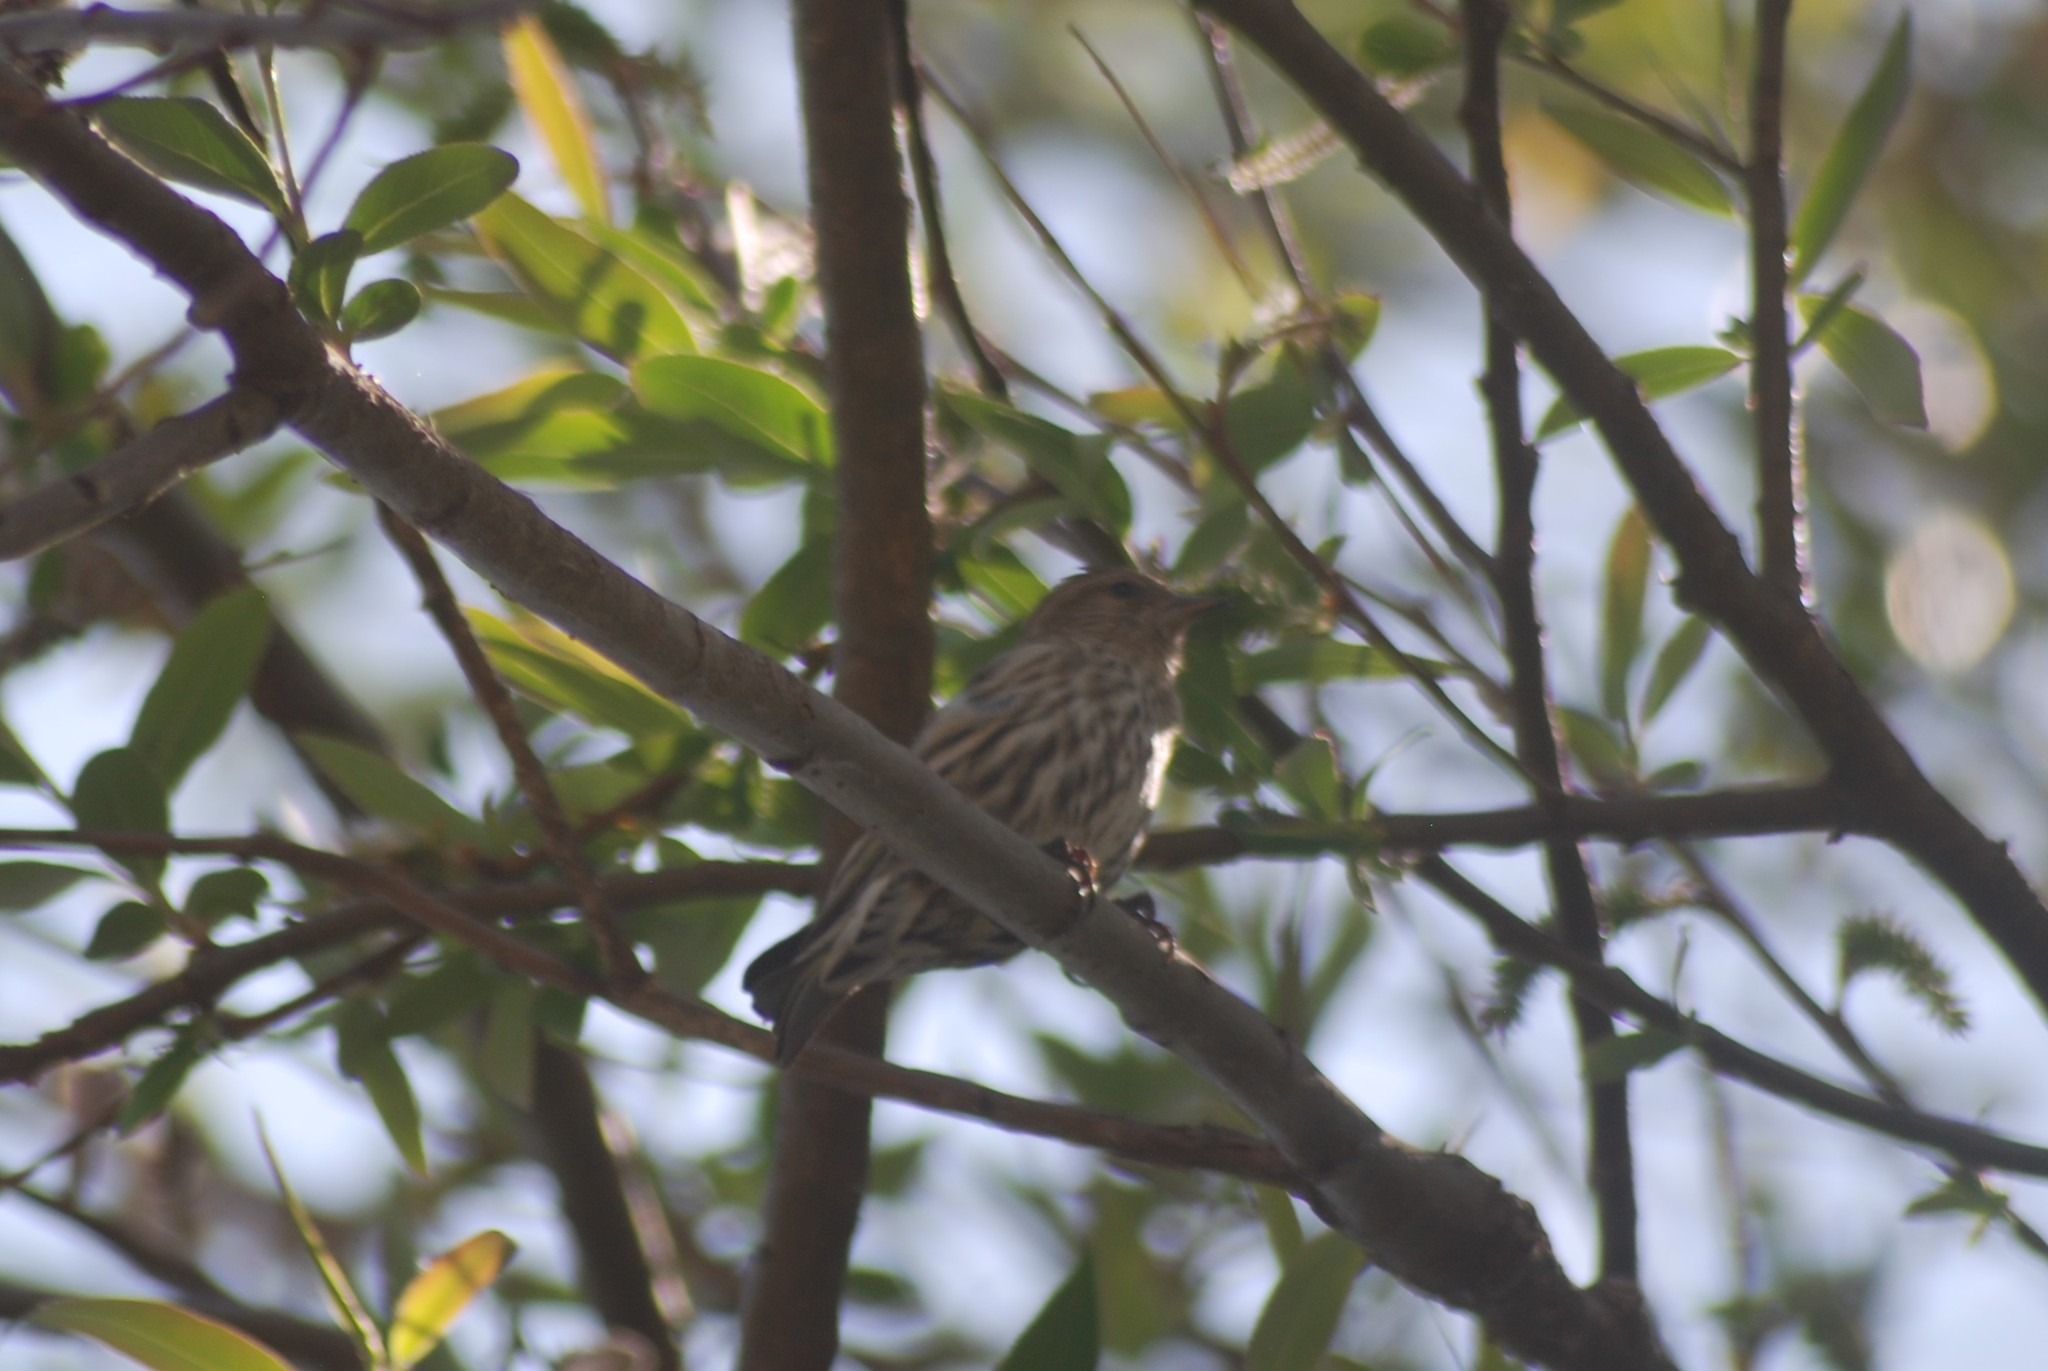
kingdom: Animalia
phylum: Chordata
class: Aves
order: Passeriformes
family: Fringillidae
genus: Spinus
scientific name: Spinus pinus
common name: Pine siskin
